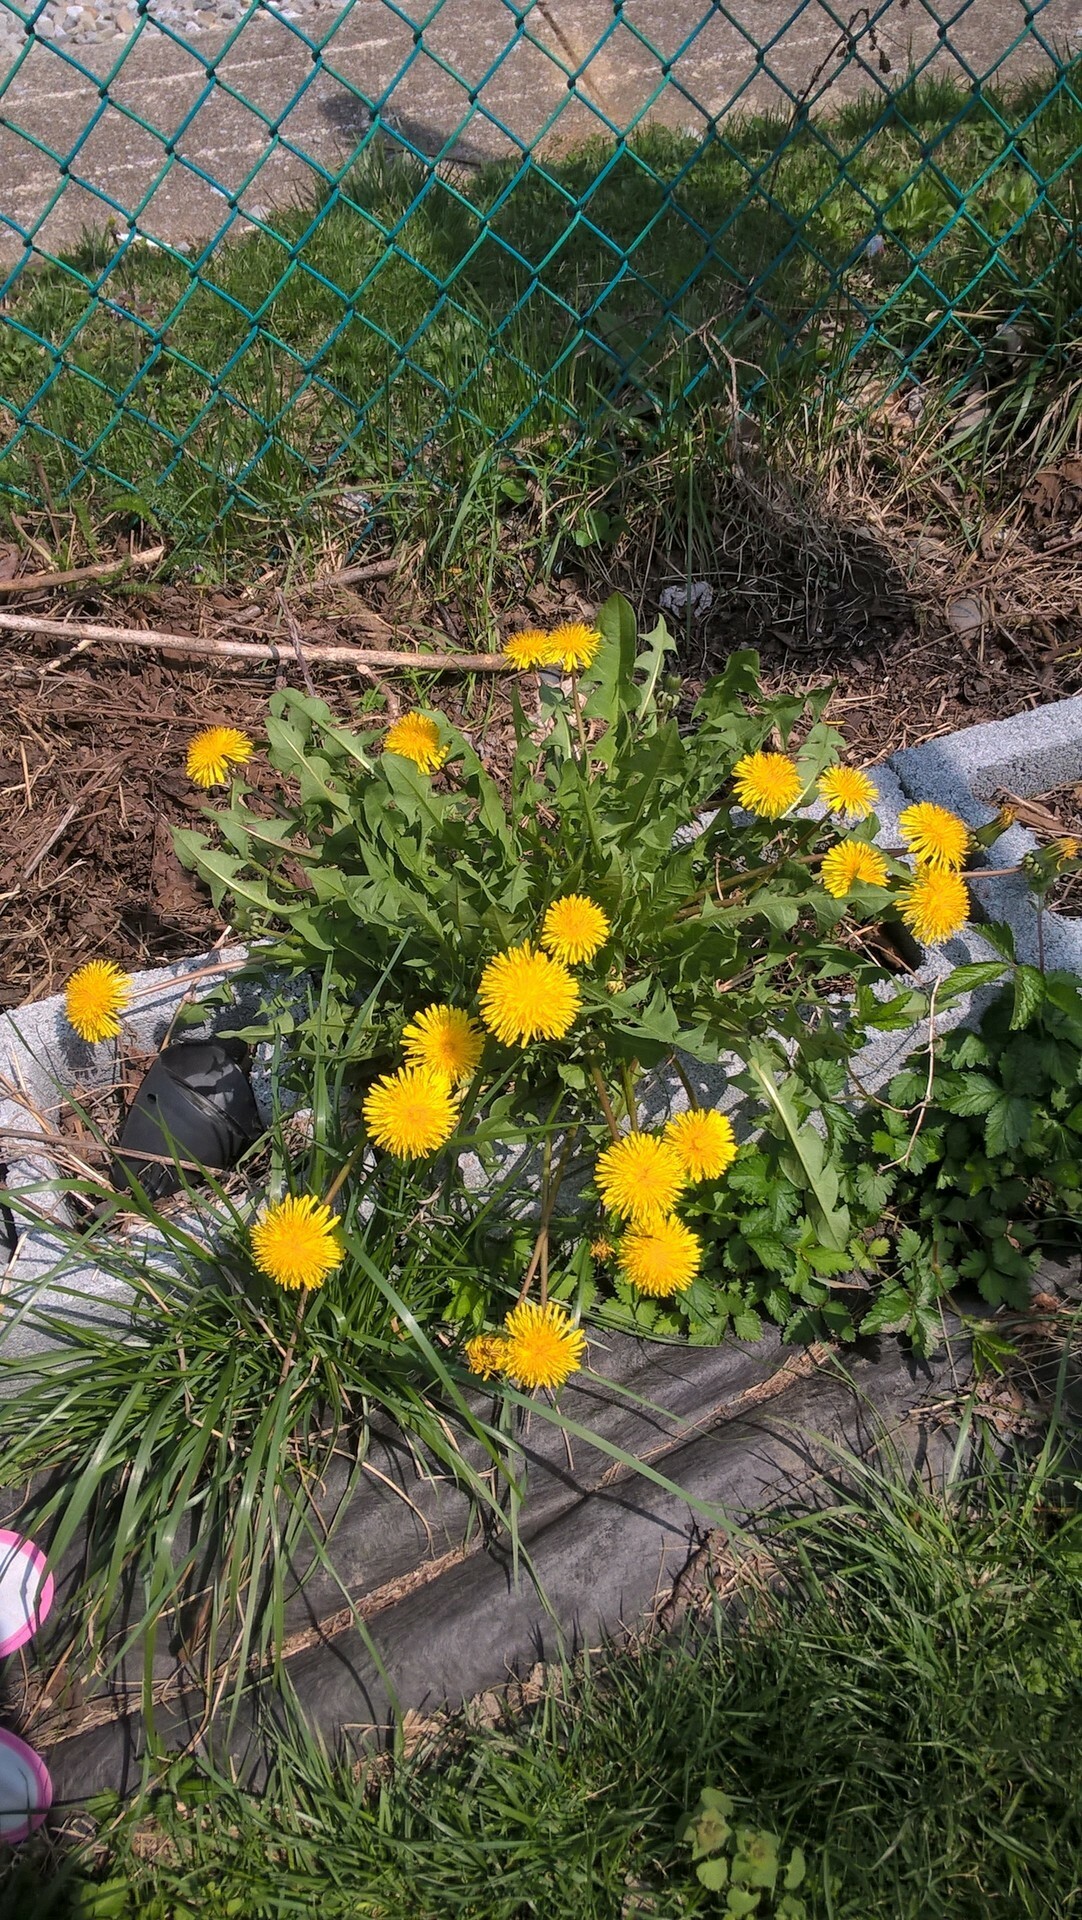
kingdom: Plantae
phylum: Tracheophyta
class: Magnoliopsida
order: Asterales
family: Asteraceae
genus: Taraxacum
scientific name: Taraxacum
